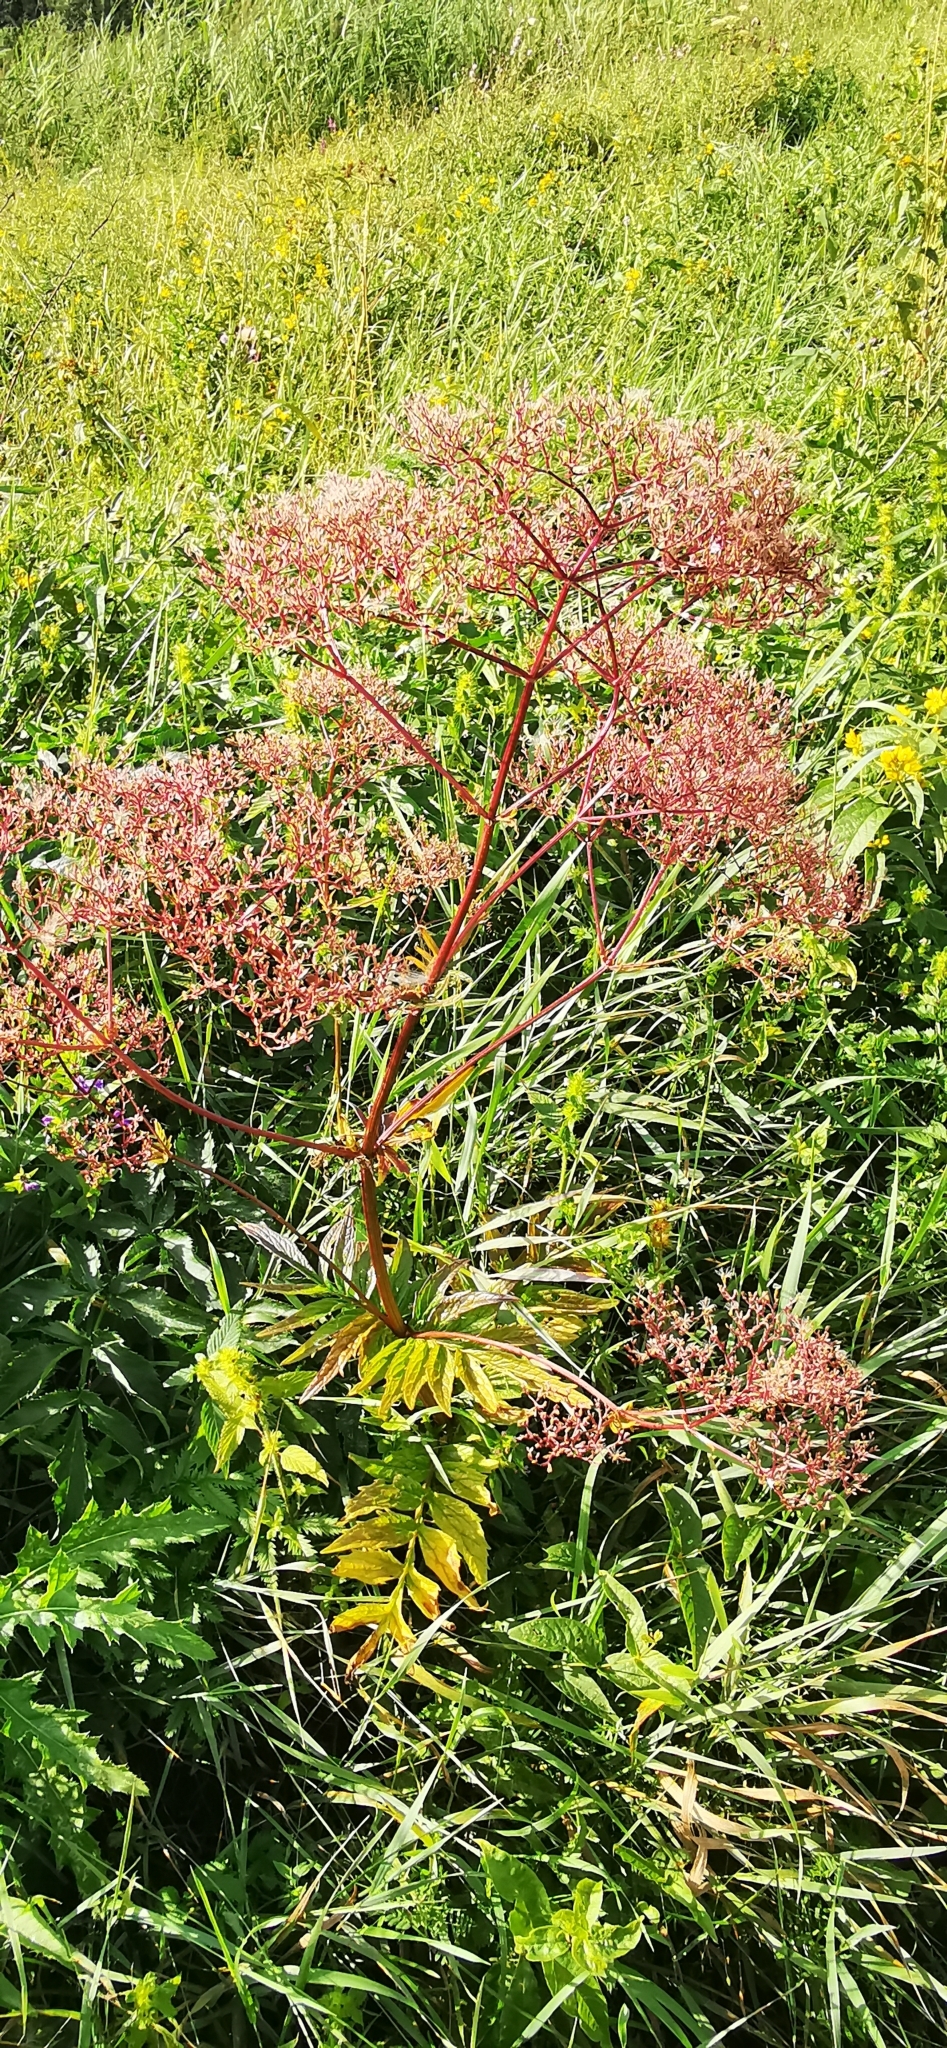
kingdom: Plantae
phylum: Tracheophyta
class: Magnoliopsida
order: Dipsacales
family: Caprifoliaceae
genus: Valeriana
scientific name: Valeriana officinalis
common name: Common valerian
